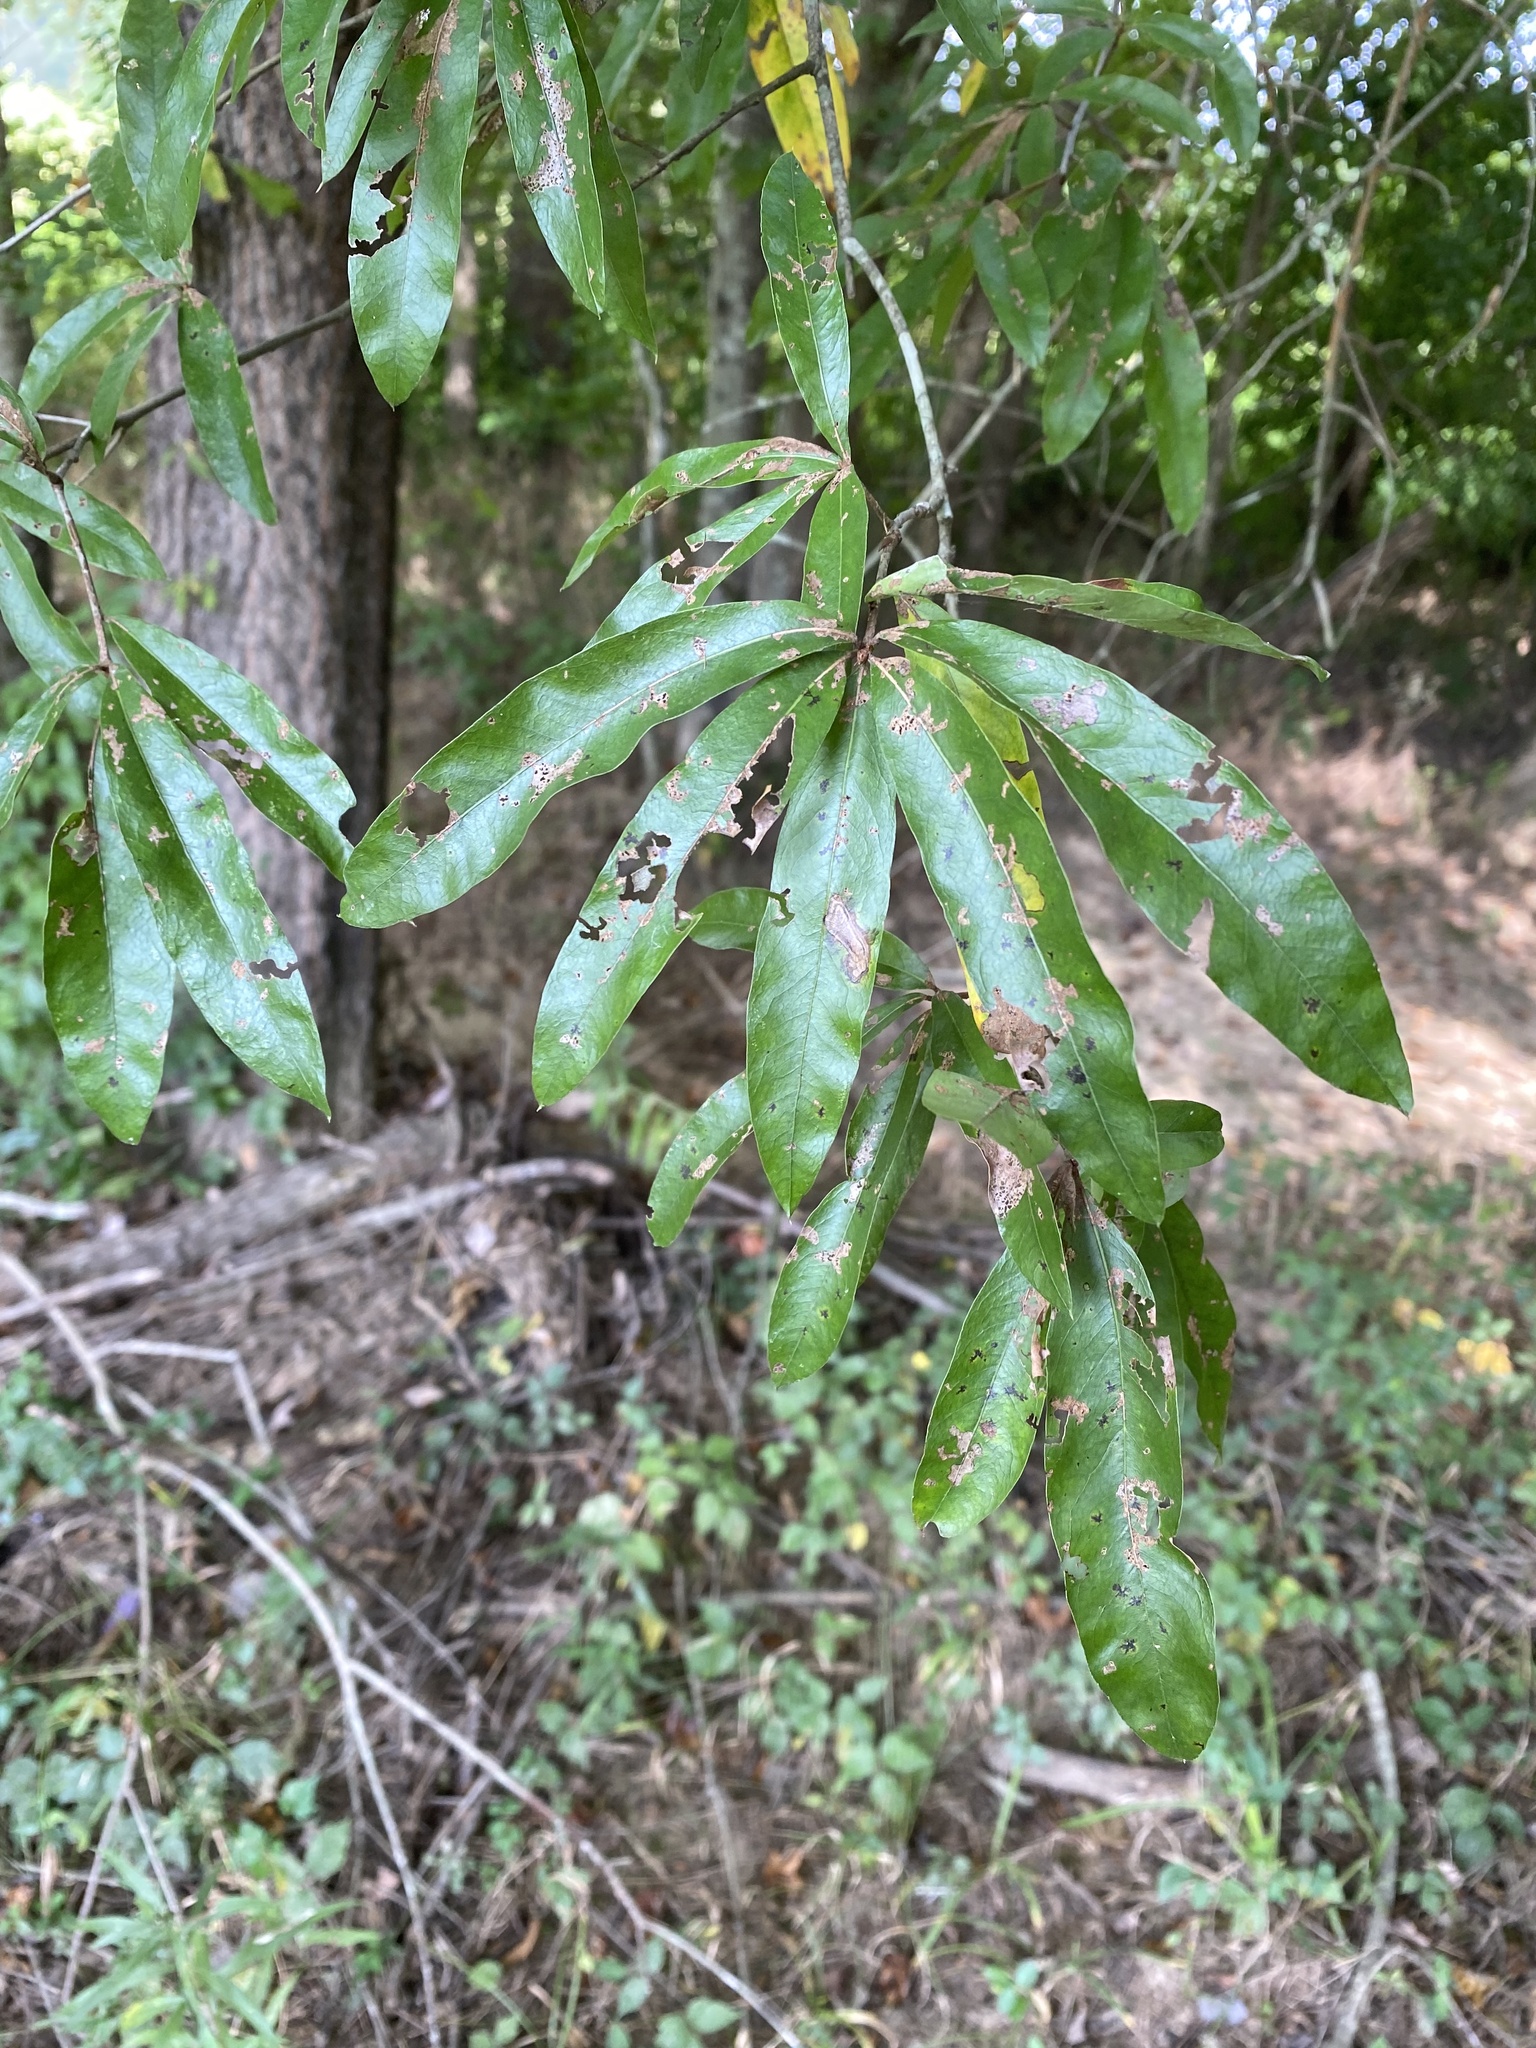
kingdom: Plantae
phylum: Tracheophyta
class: Magnoliopsida
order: Fagales
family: Fagaceae
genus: Quercus
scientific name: Quercus phellos
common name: Willow oak
